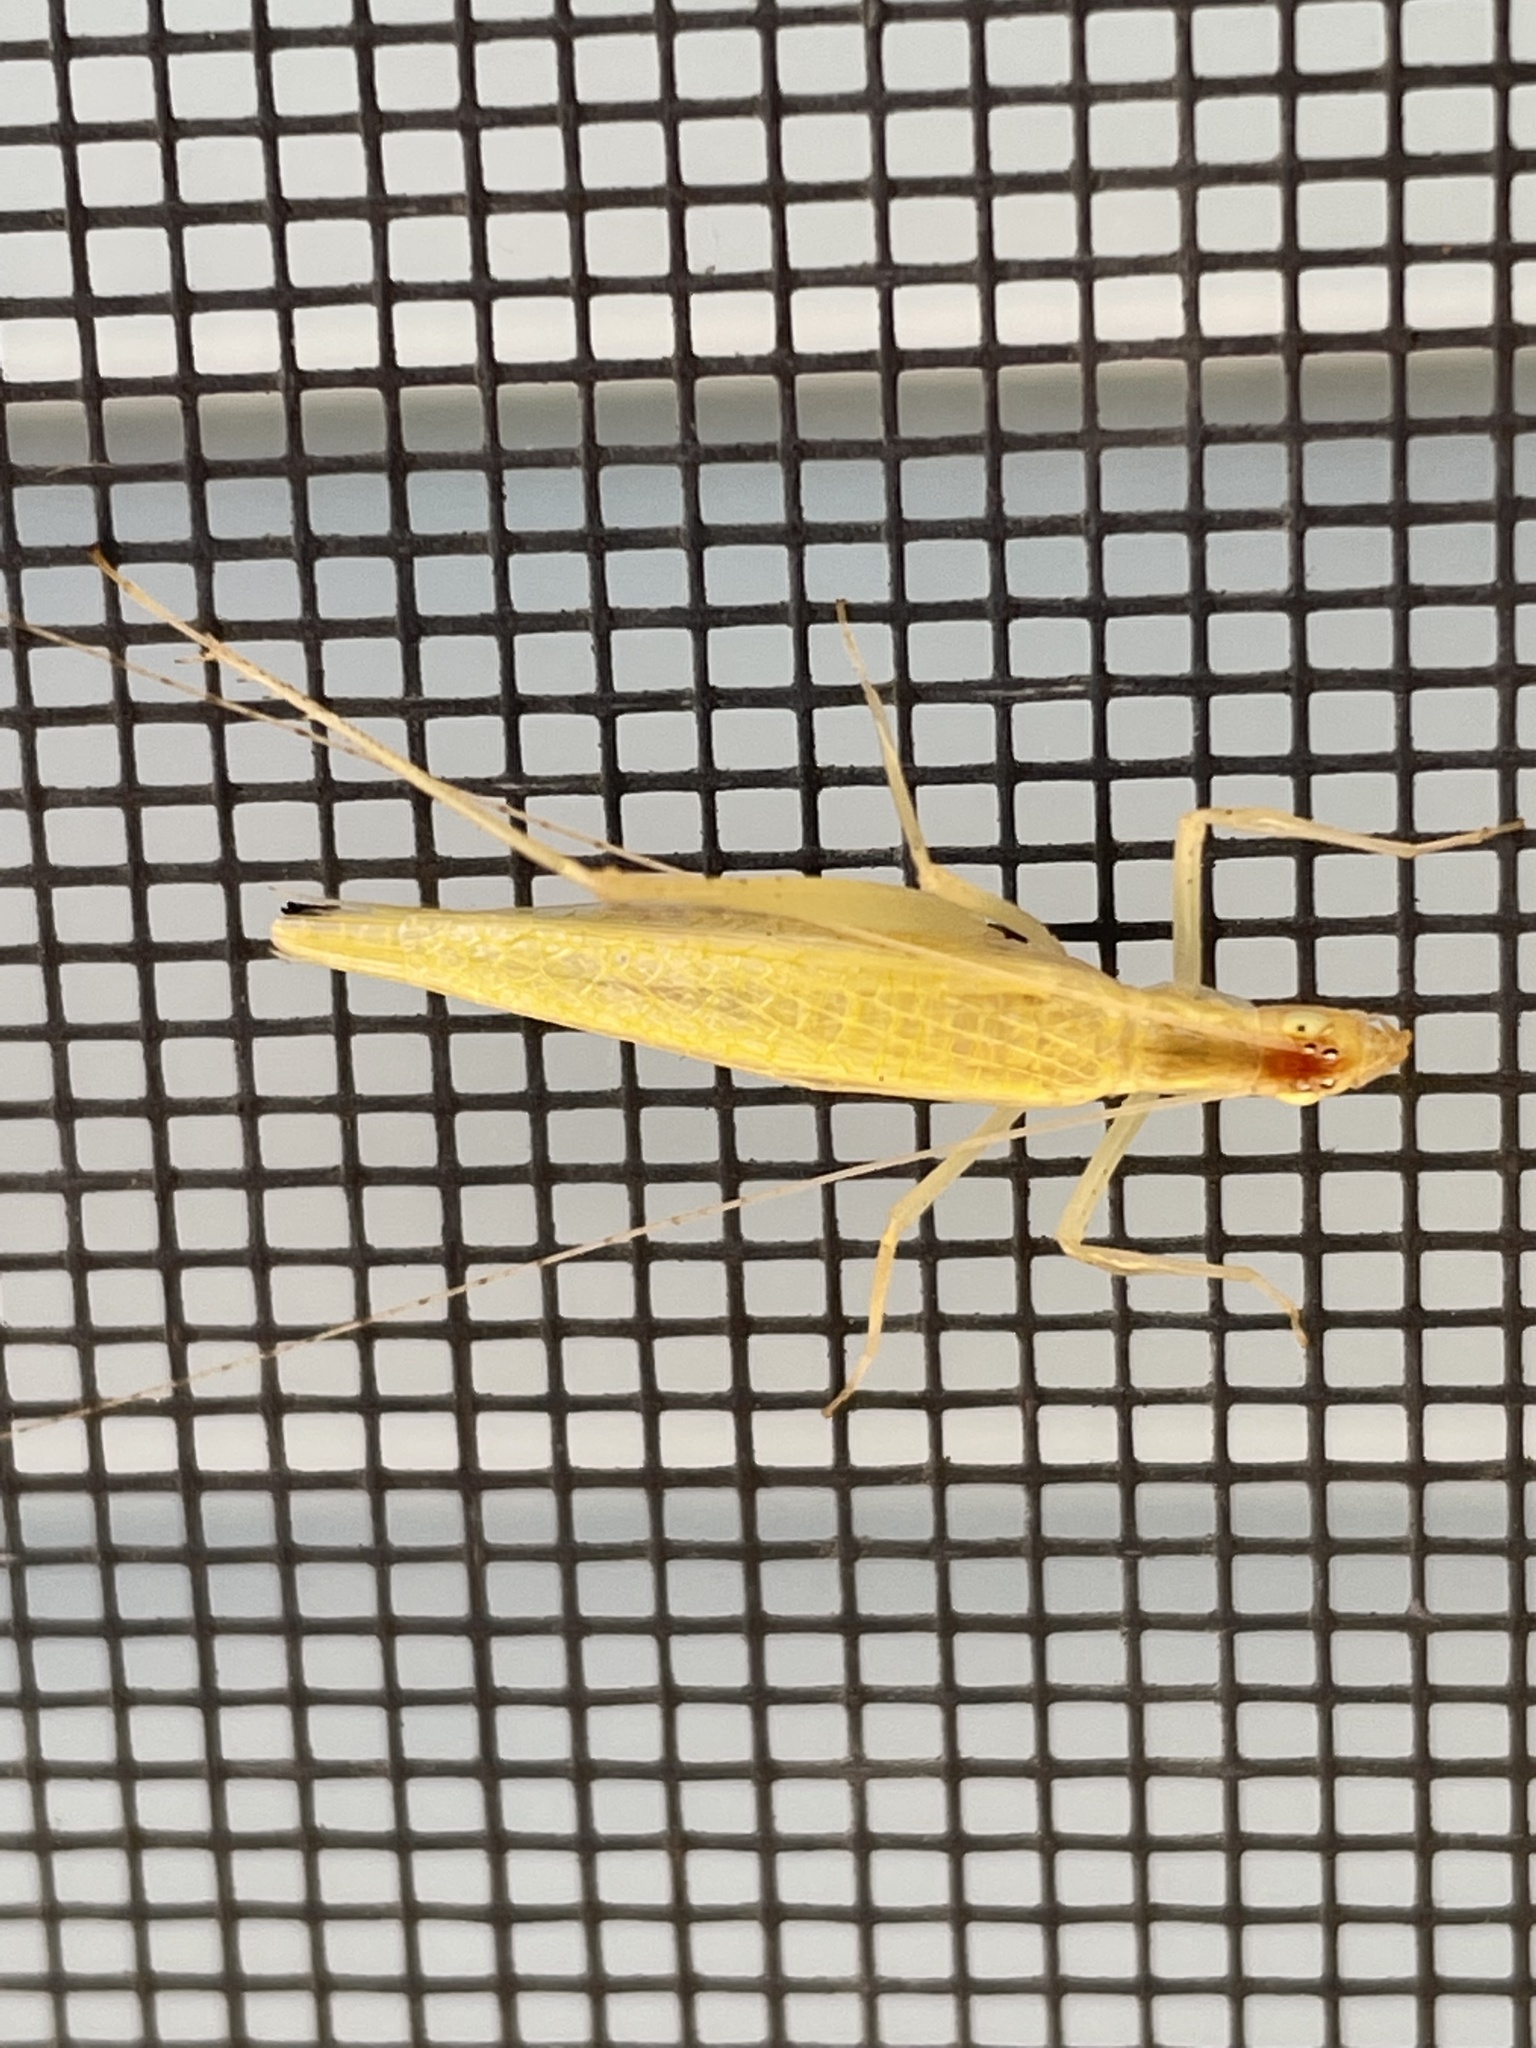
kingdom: Animalia
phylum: Arthropoda
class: Insecta
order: Orthoptera
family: Gryllidae
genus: Oecanthus
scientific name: Oecanthus niveus
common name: Narrow-winged tree cricket
